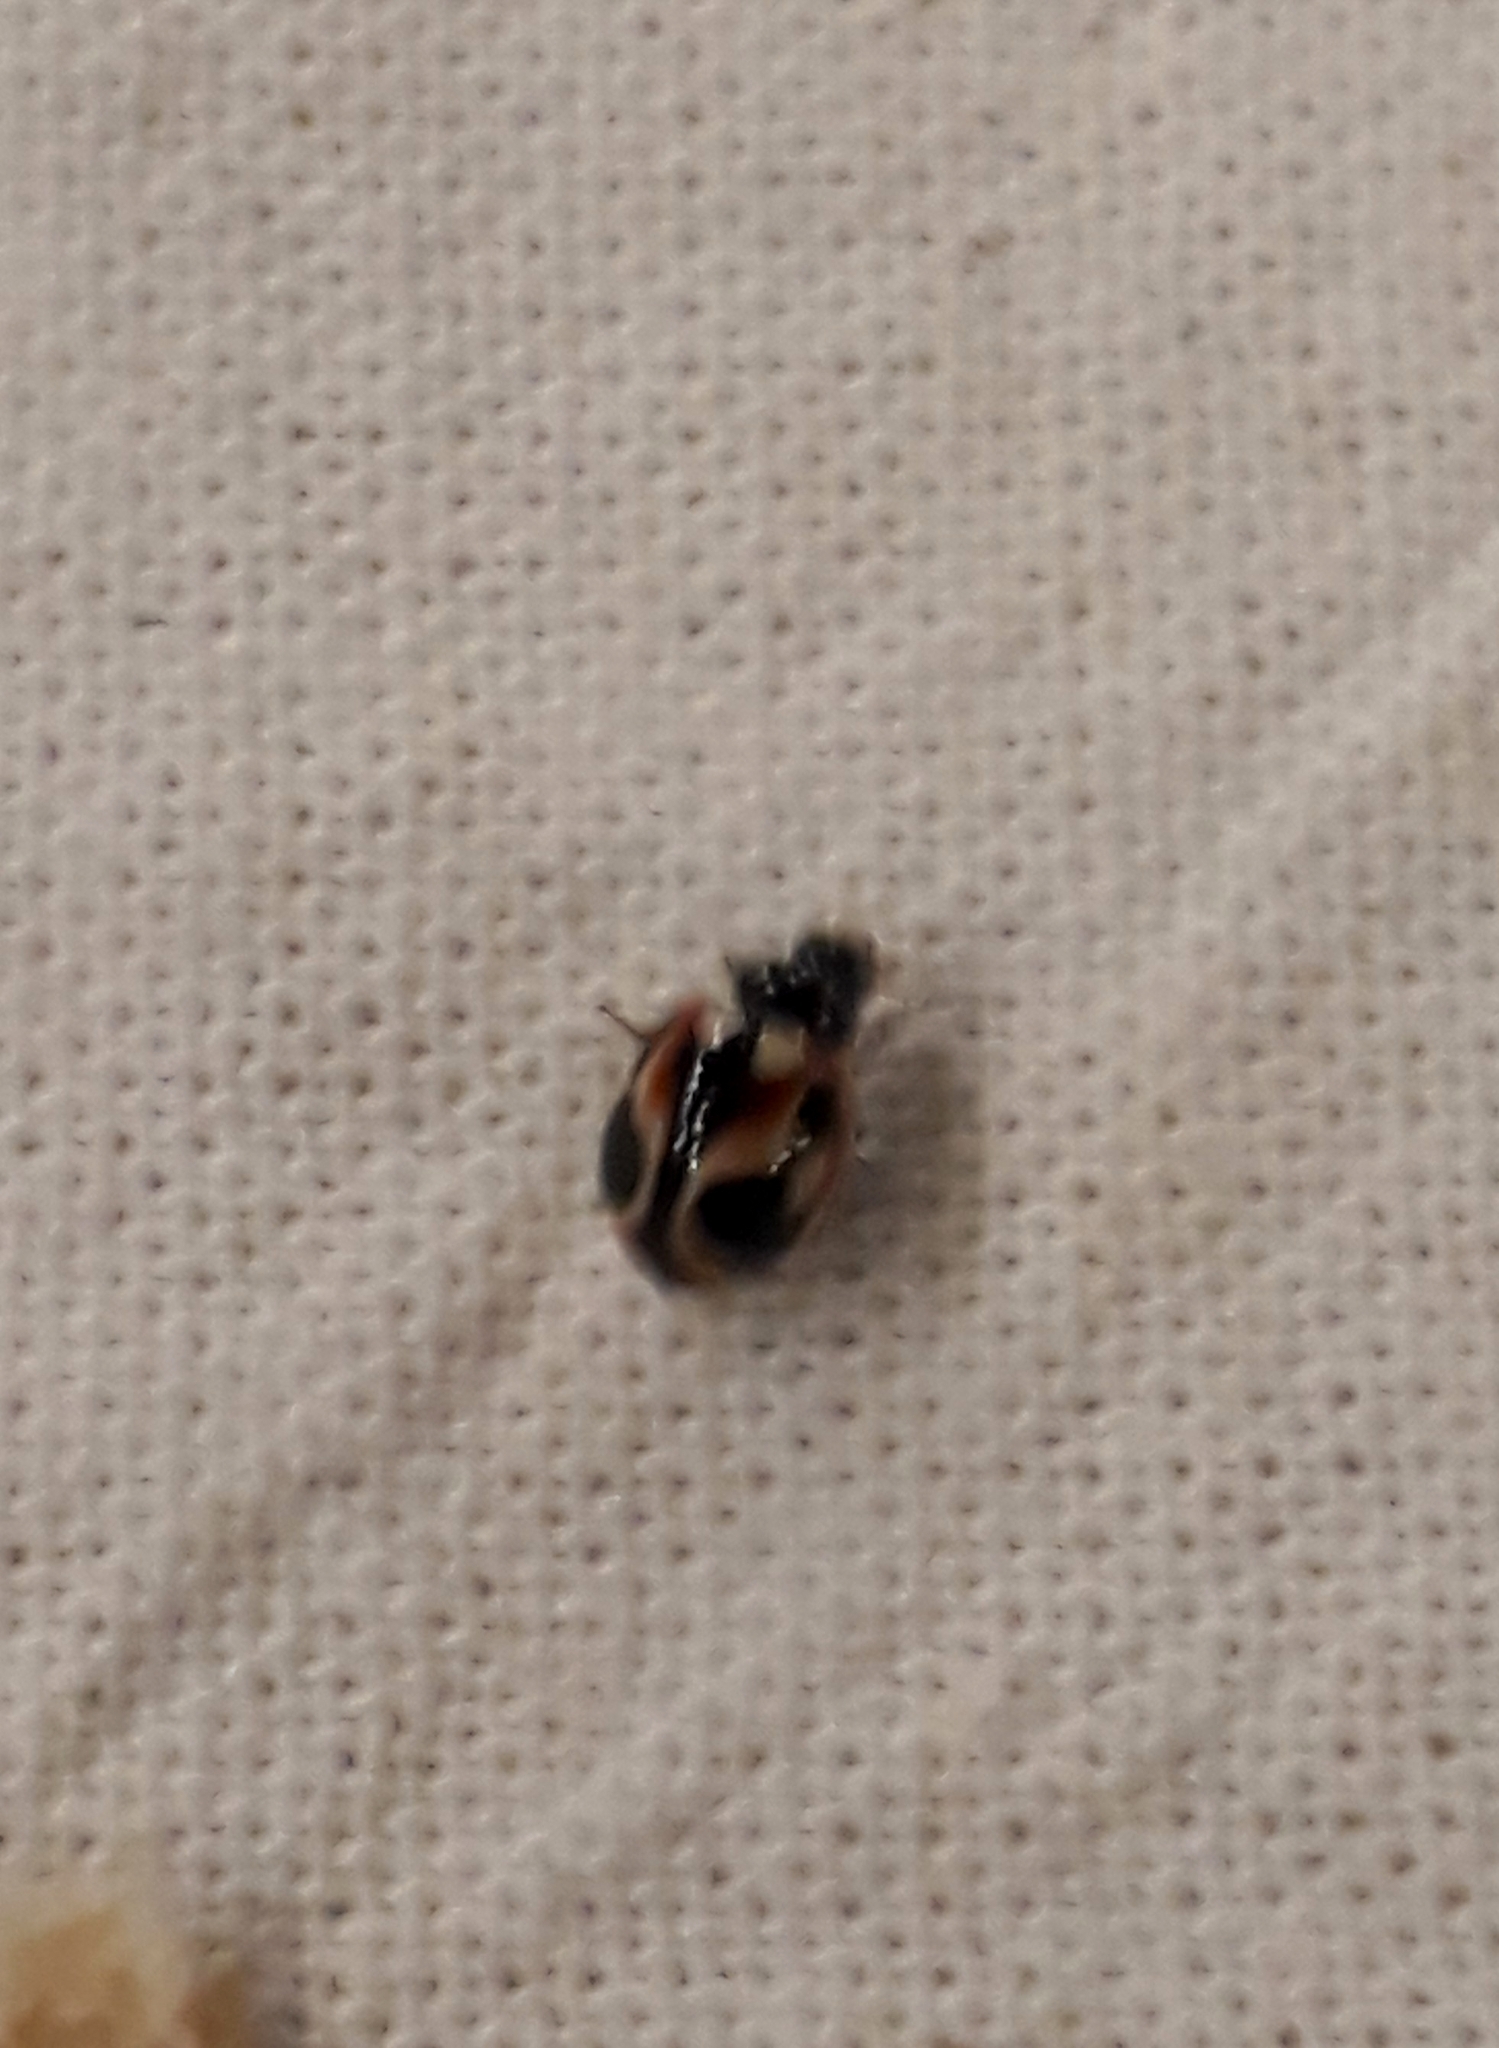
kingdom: Animalia
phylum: Arthropoda
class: Insecta
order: Coleoptera
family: Coccinellidae
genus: Cycloneda
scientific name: Cycloneda ancoralis
